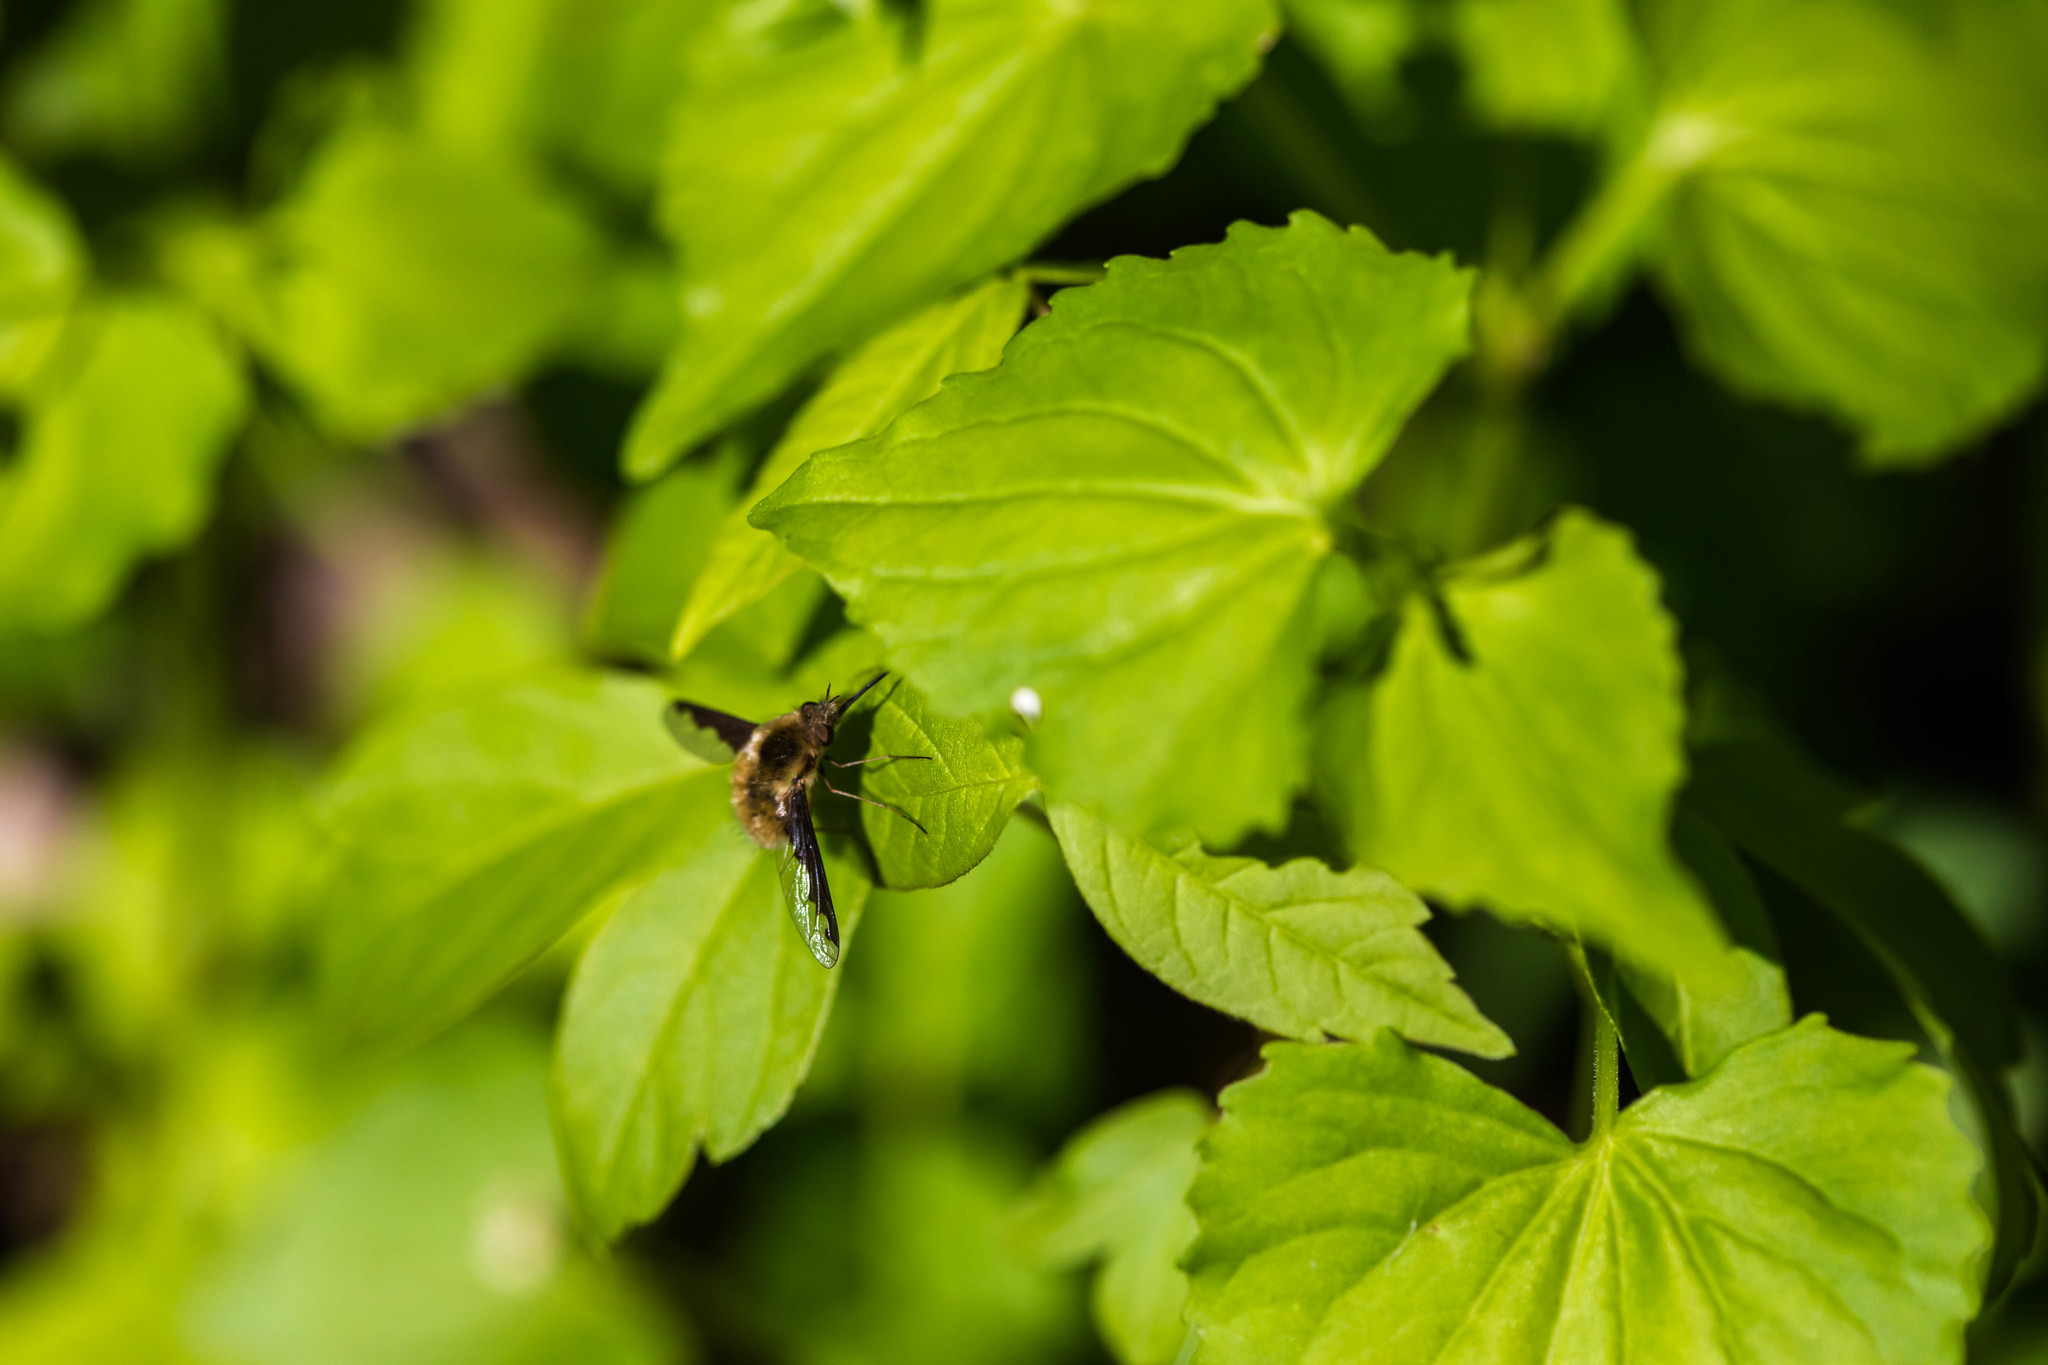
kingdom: Animalia
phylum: Arthropoda
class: Insecta
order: Diptera
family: Bombyliidae
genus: Bombylius
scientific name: Bombylius major
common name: Bee fly
